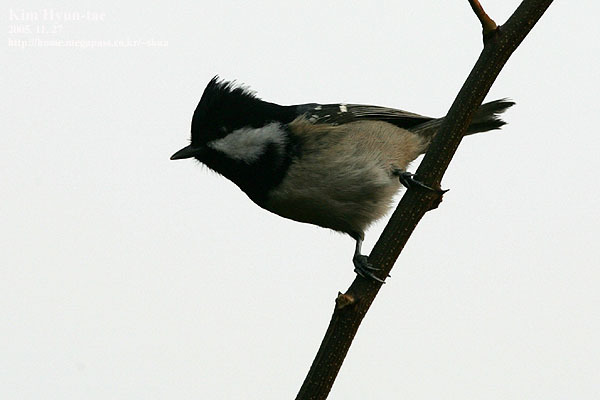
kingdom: Animalia
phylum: Chordata
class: Aves
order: Passeriformes
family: Paridae
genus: Periparus
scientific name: Periparus ater
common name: Coal tit
